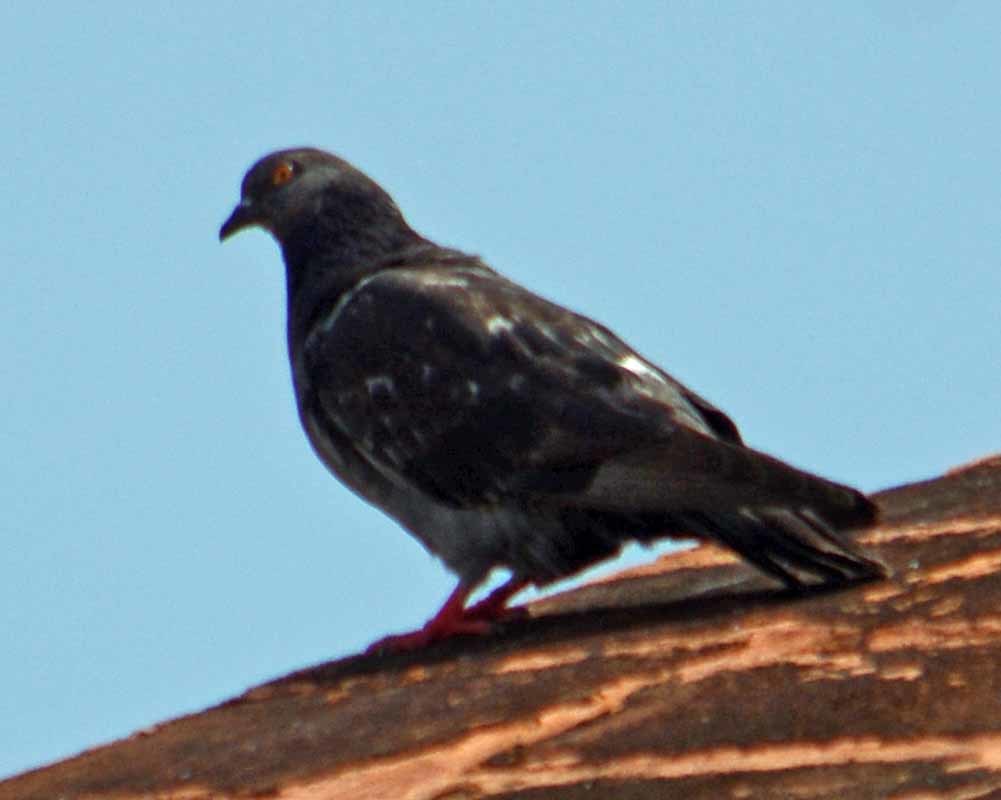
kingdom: Animalia
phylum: Chordata
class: Aves
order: Columbiformes
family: Columbidae
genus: Columba
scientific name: Columba livia
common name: Rock pigeon
